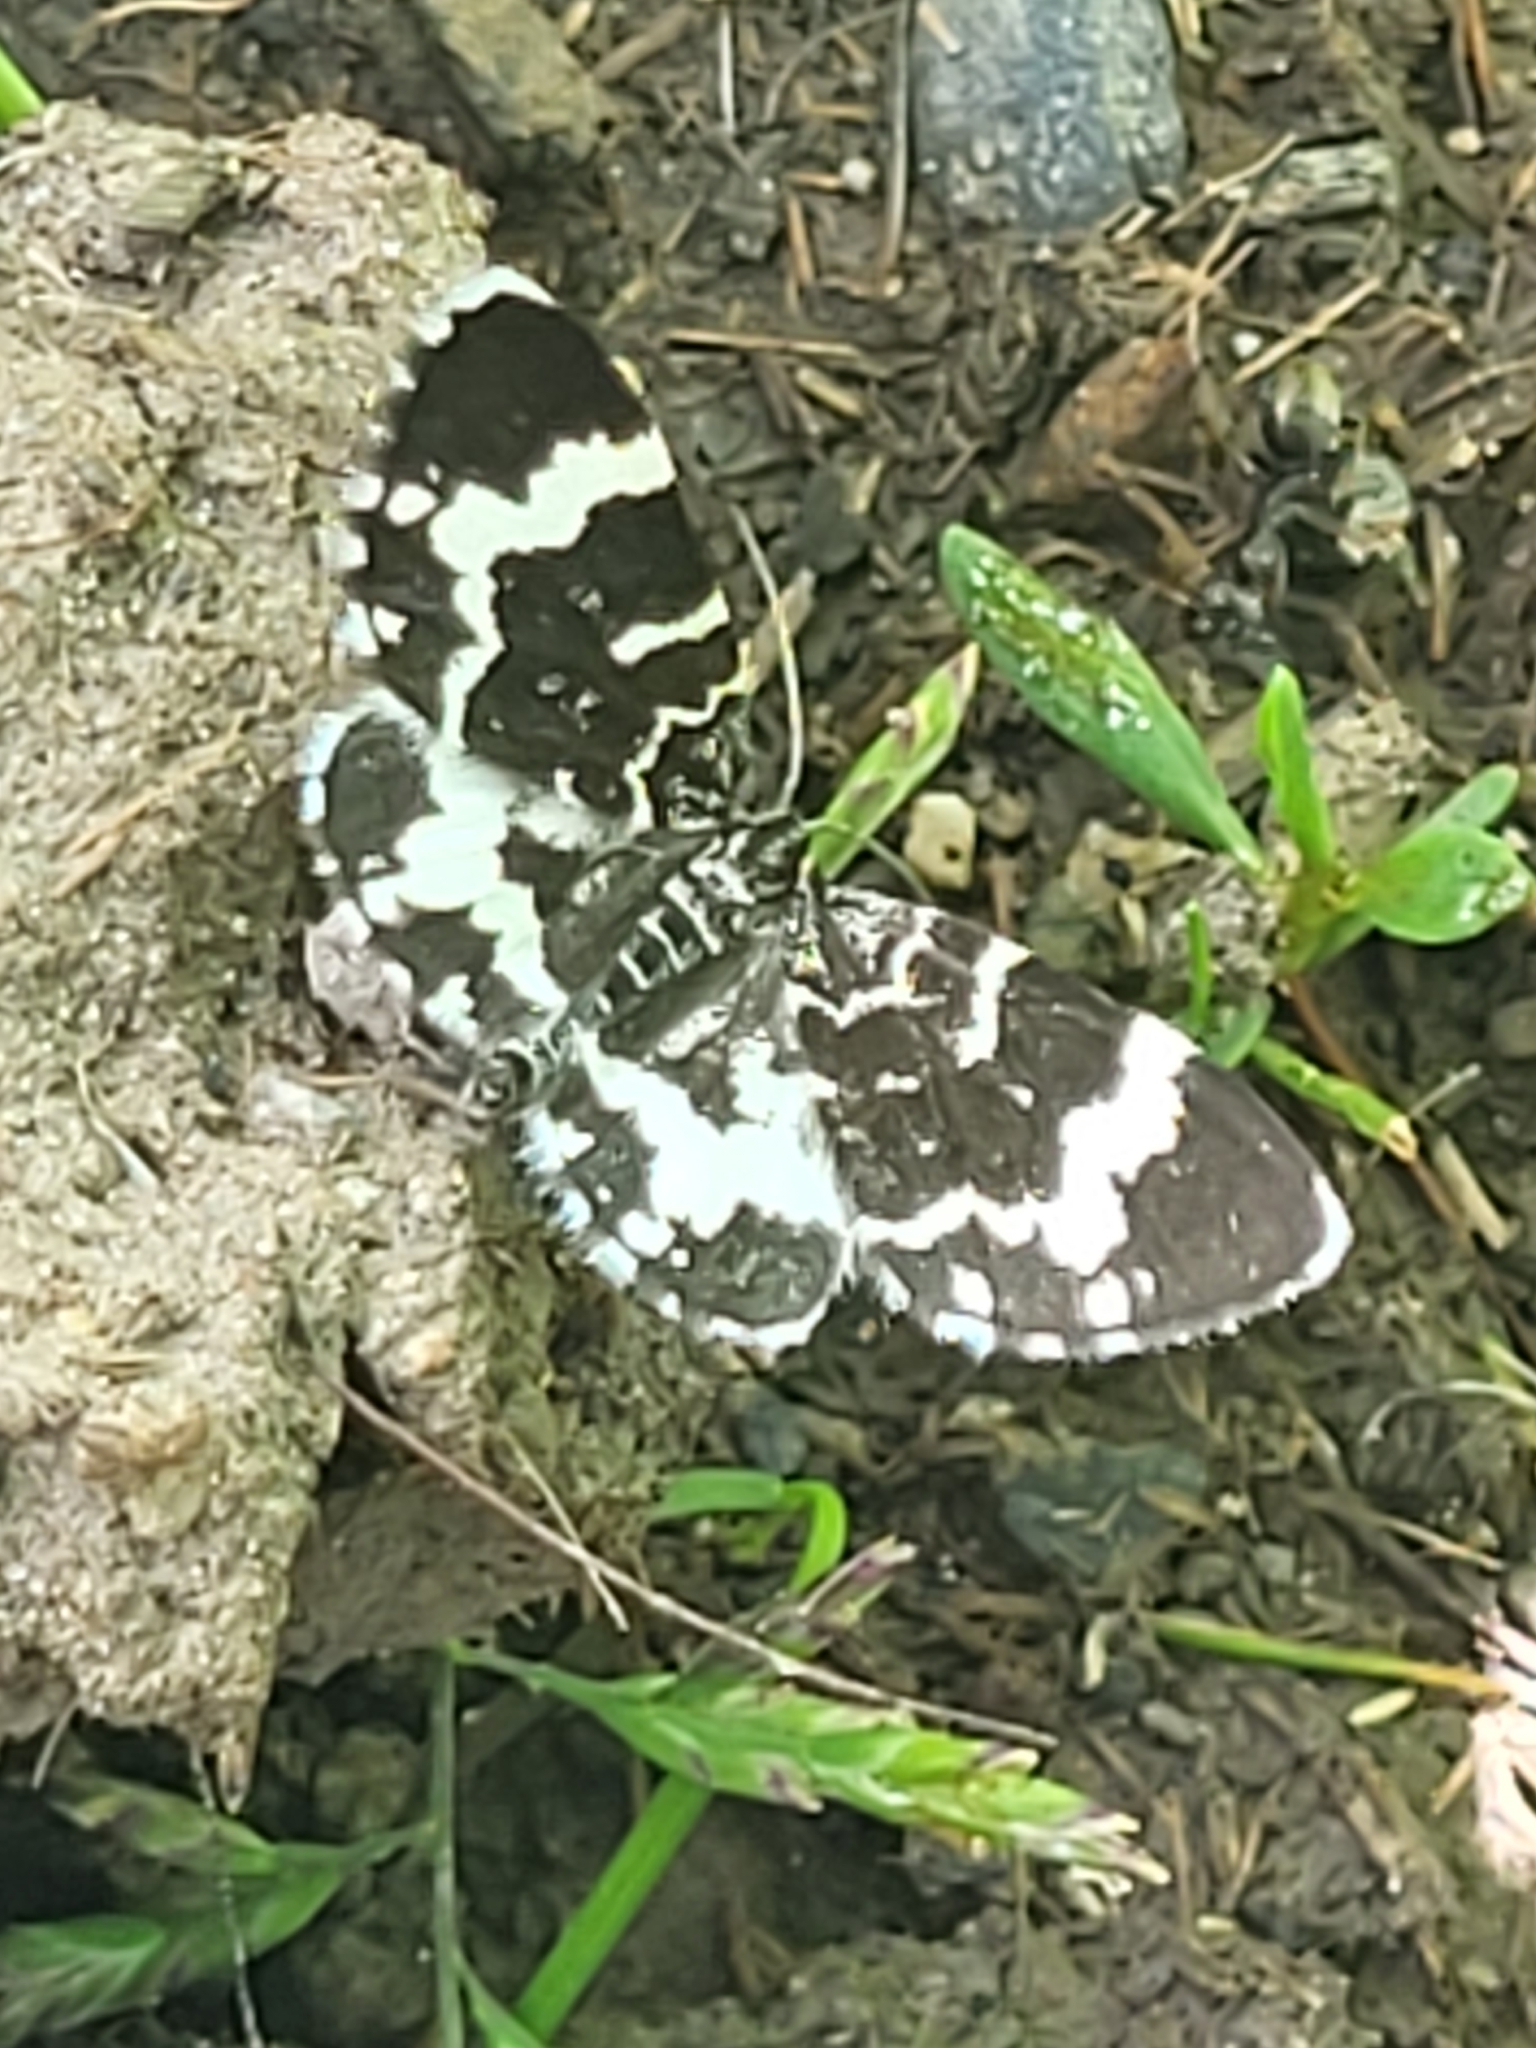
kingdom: Animalia
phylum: Arthropoda
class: Insecta
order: Lepidoptera
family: Geometridae
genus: Trichodezia
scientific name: Trichodezia haberhaueri
